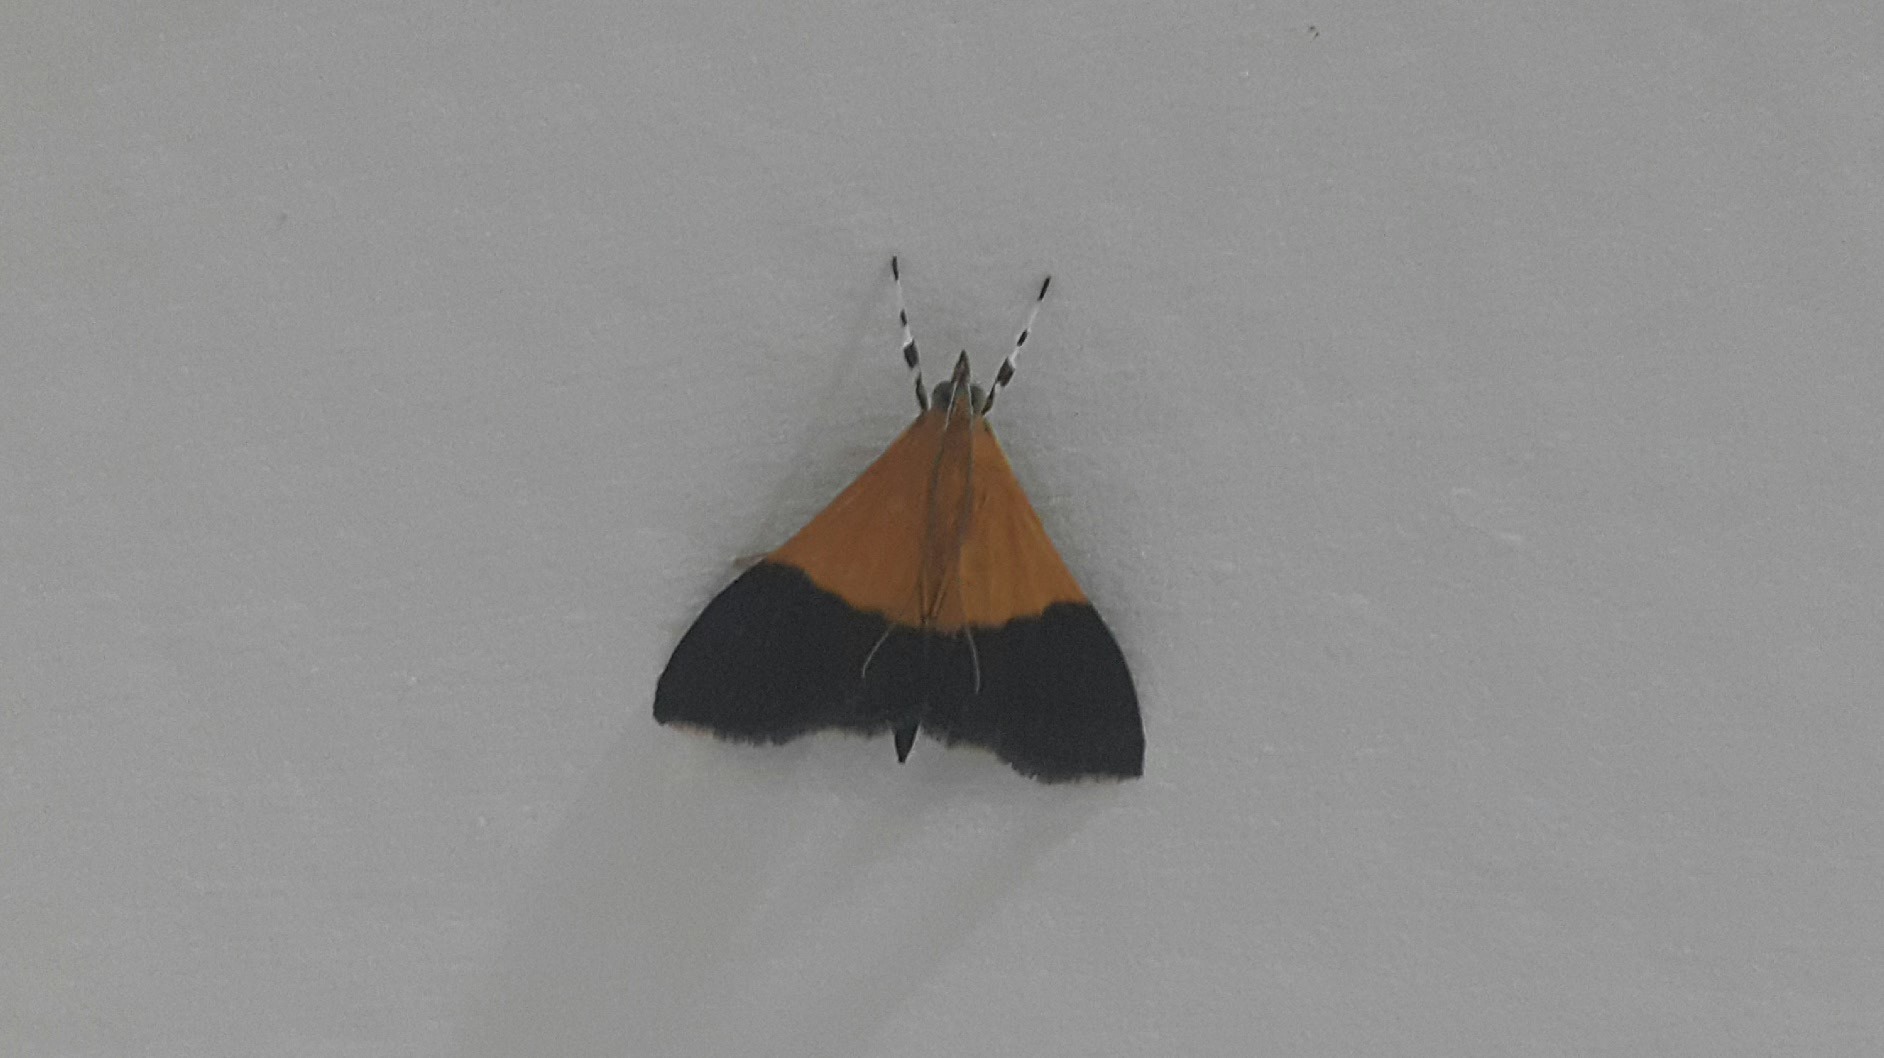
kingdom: Animalia
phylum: Arthropoda
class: Insecta
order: Lepidoptera
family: Crambidae
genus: Pyrausta
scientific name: Pyrausta augustalis
